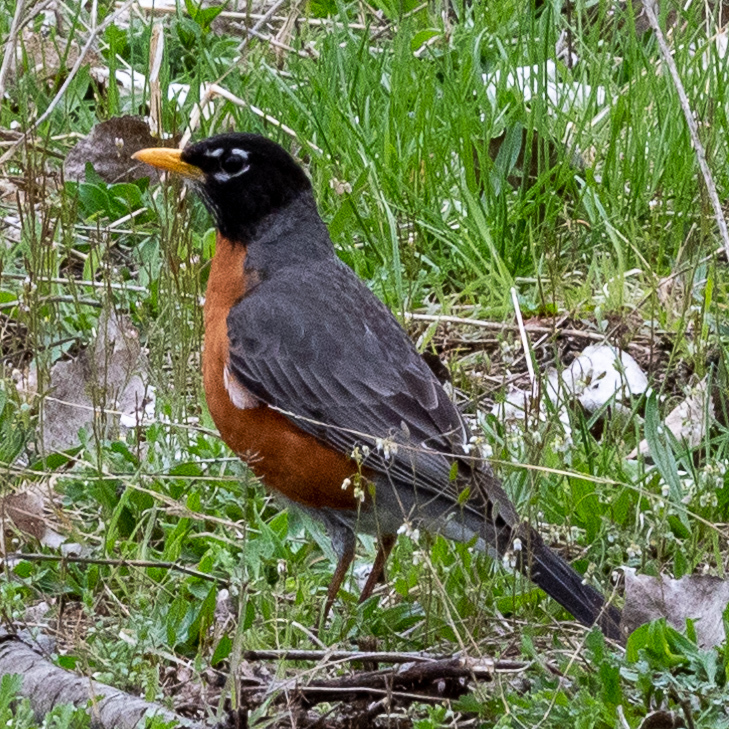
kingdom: Animalia
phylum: Chordata
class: Aves
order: Passeriformes
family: Turdidae
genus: Turdus
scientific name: Turdus migratorius
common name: American robin
